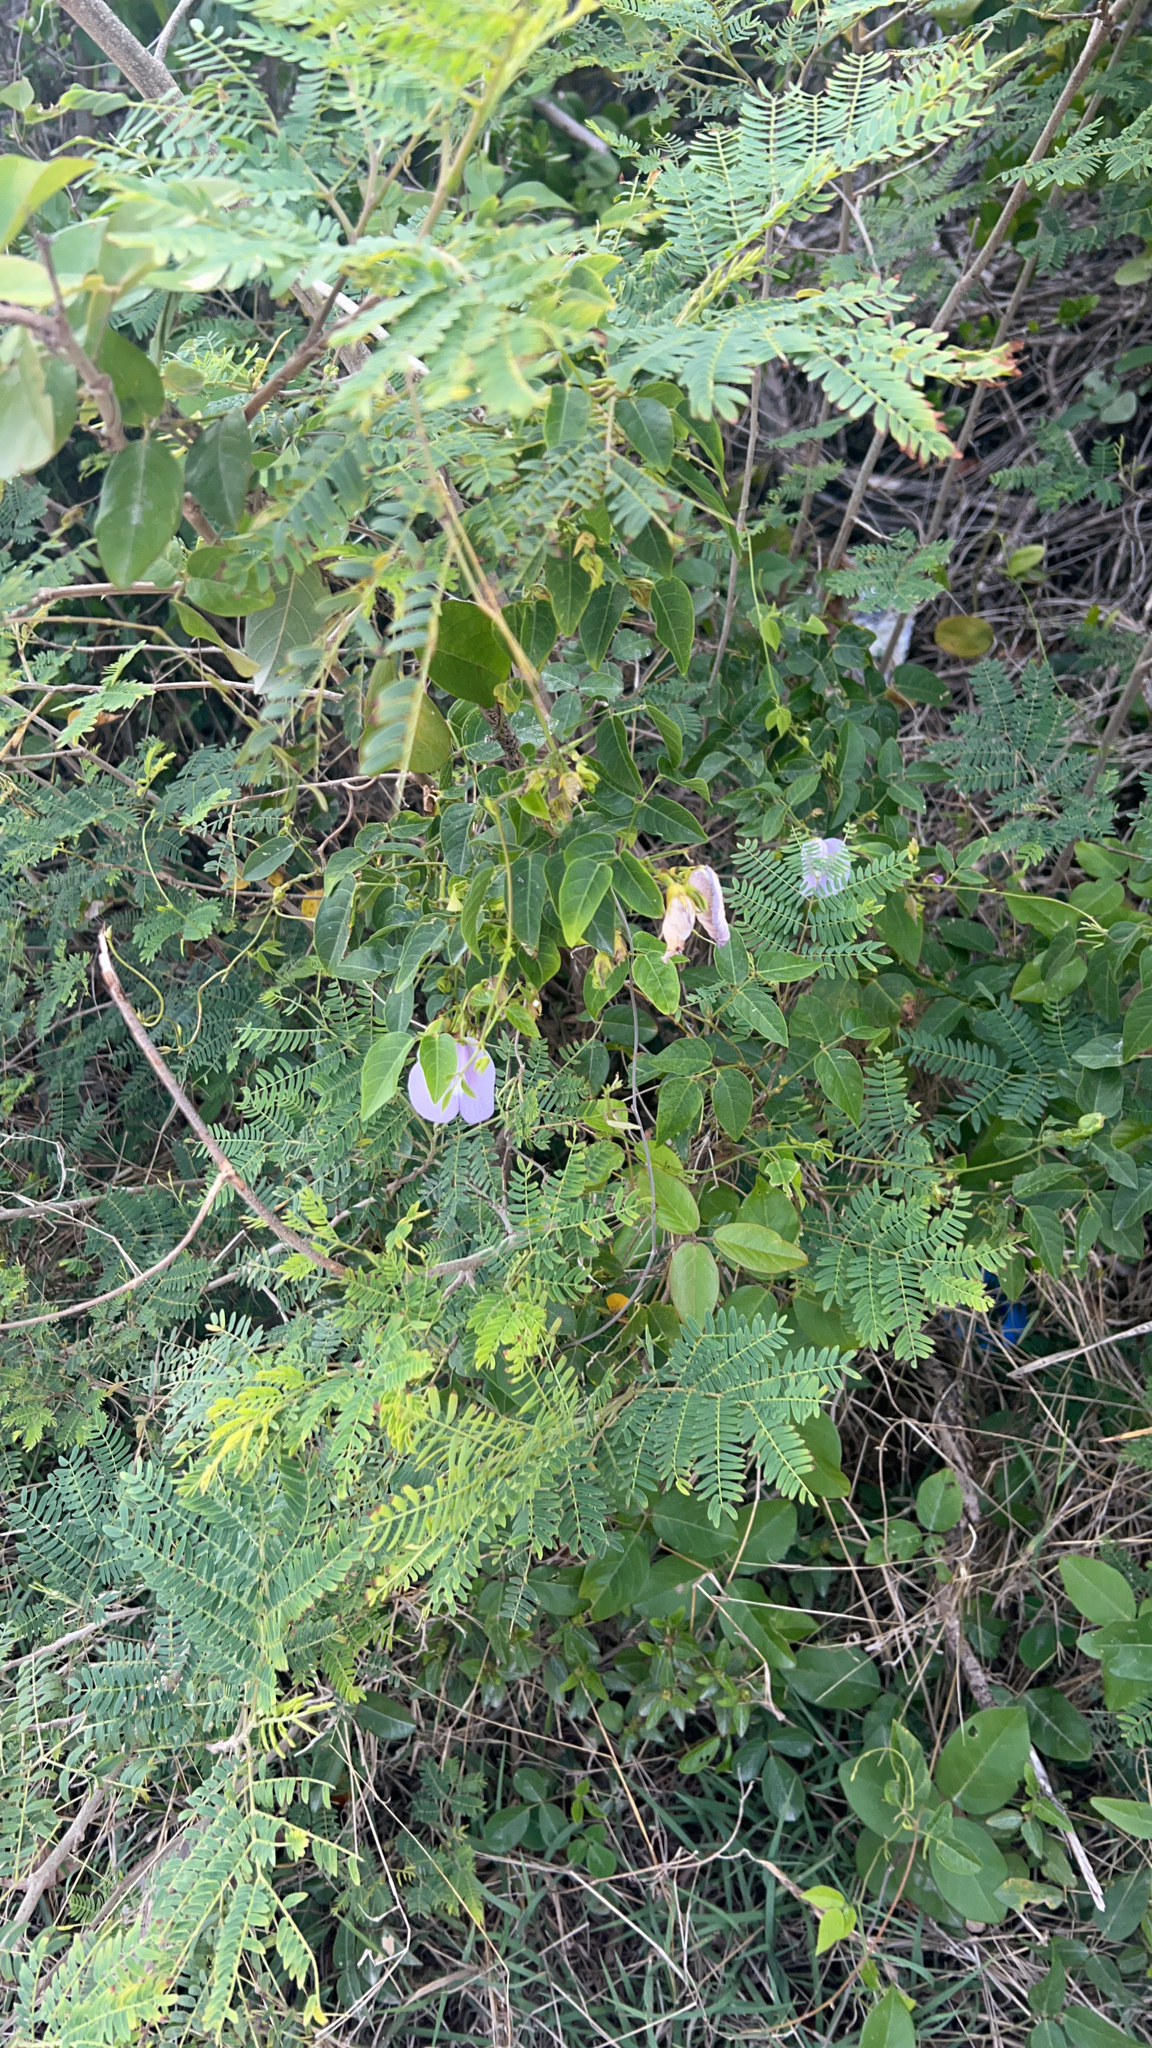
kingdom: Plantae
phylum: Tracheophyta
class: Magnoliopsida
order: Fabales
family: Fabaceae
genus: Centrosema
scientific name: Centrosema virginianum
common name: Butterfly-pea
